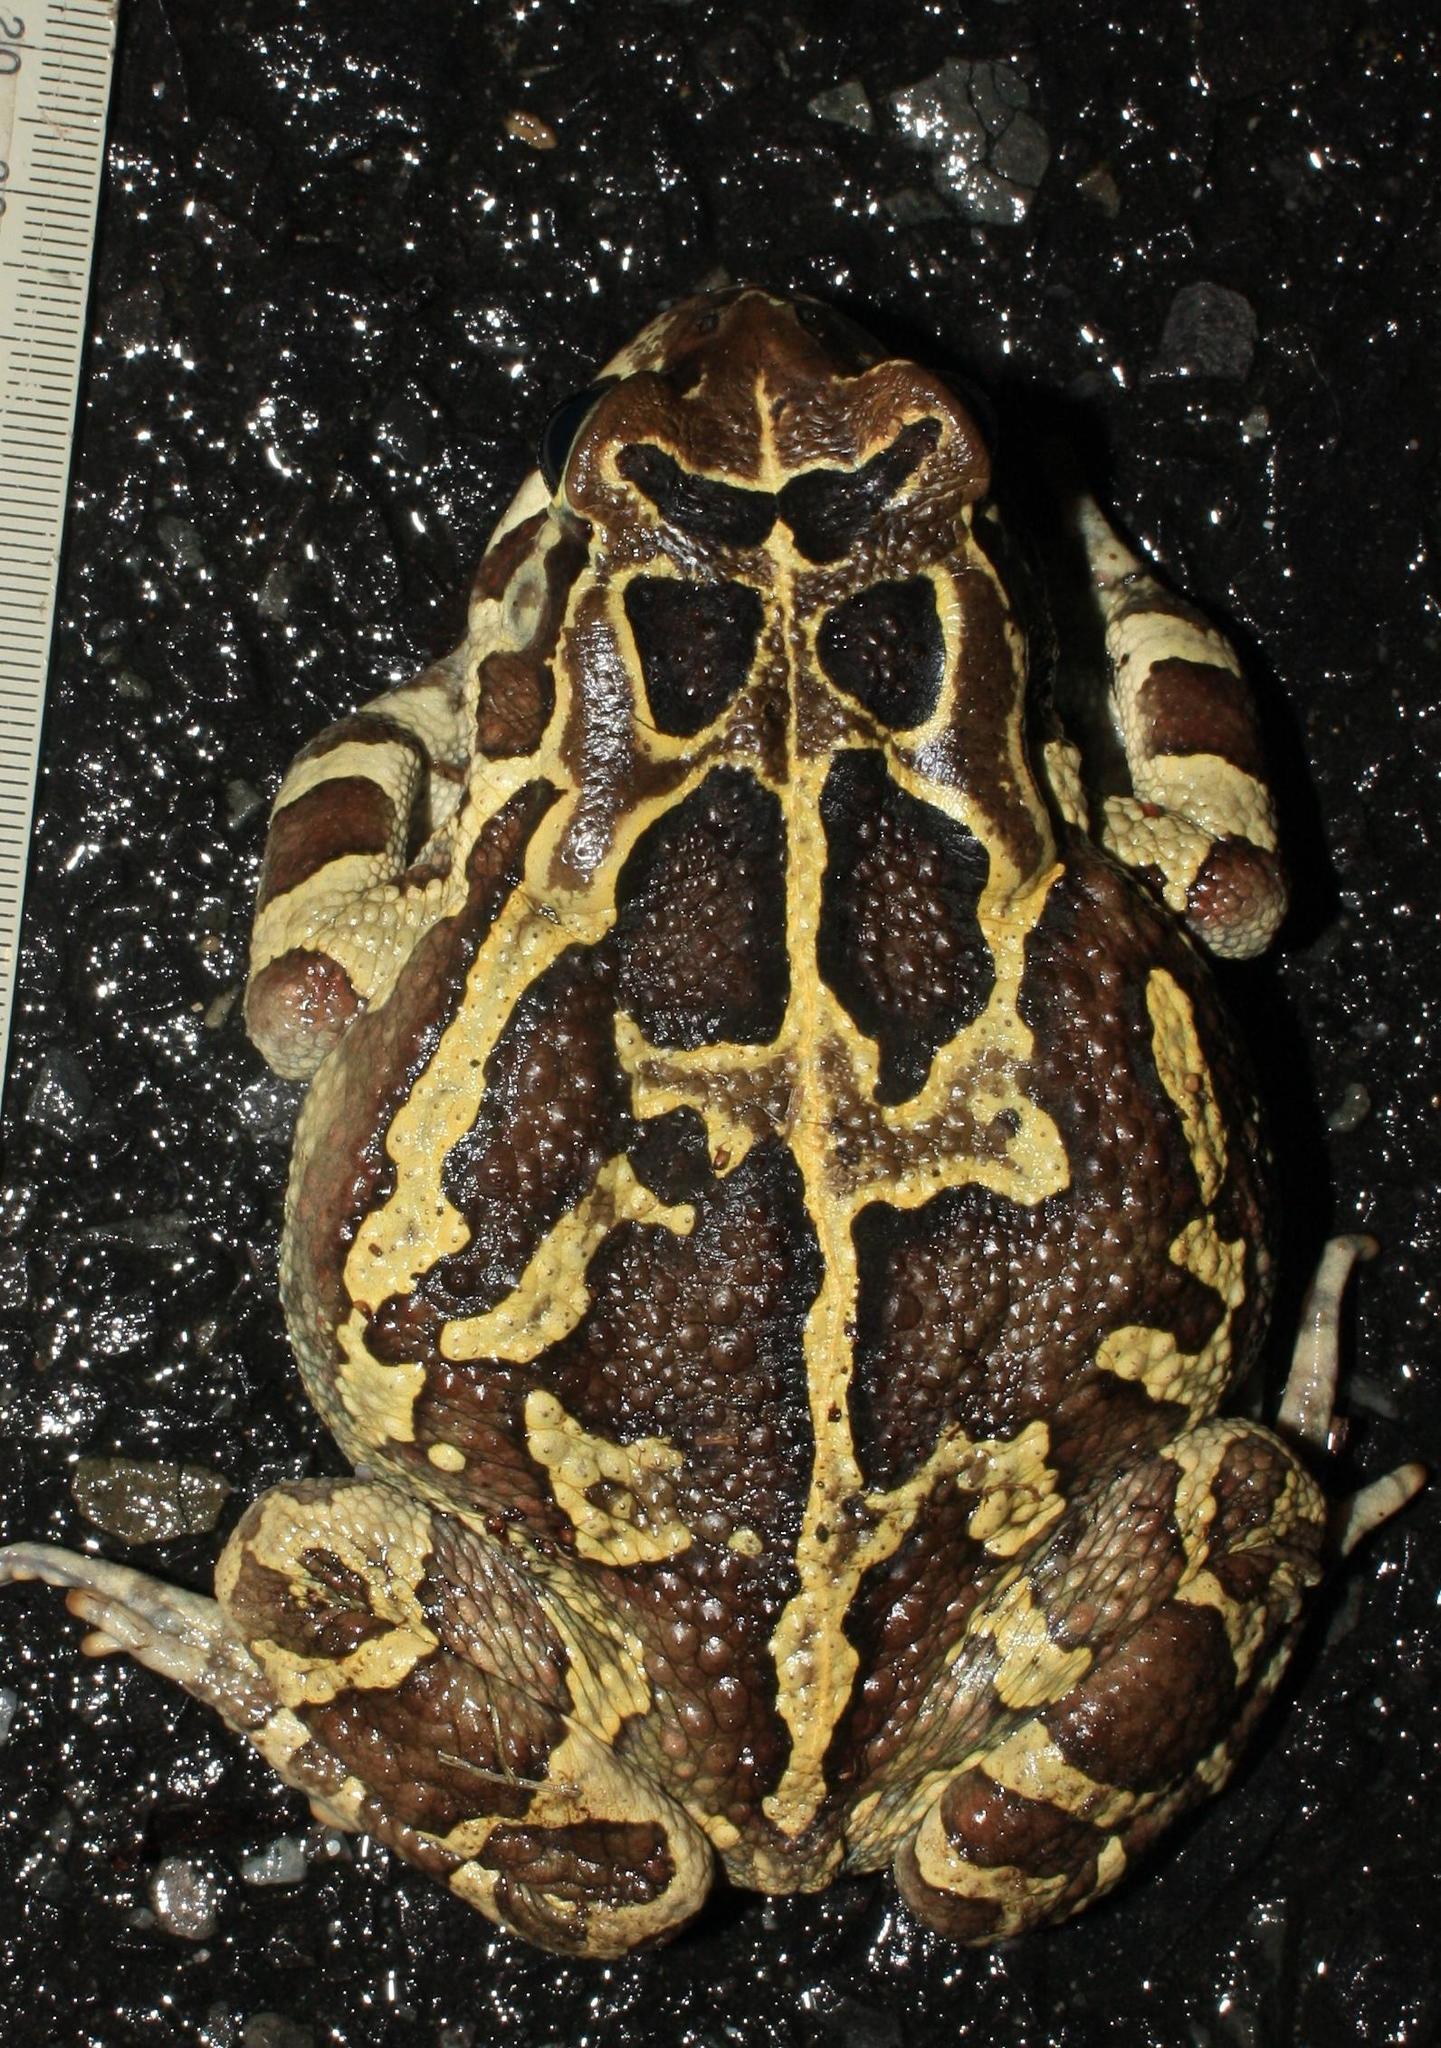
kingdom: Animalia
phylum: Chordata
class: Amphibia
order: Anura
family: Bufonidae
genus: Sclerophrys
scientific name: Sclerophrys pantherina
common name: Panther toad
